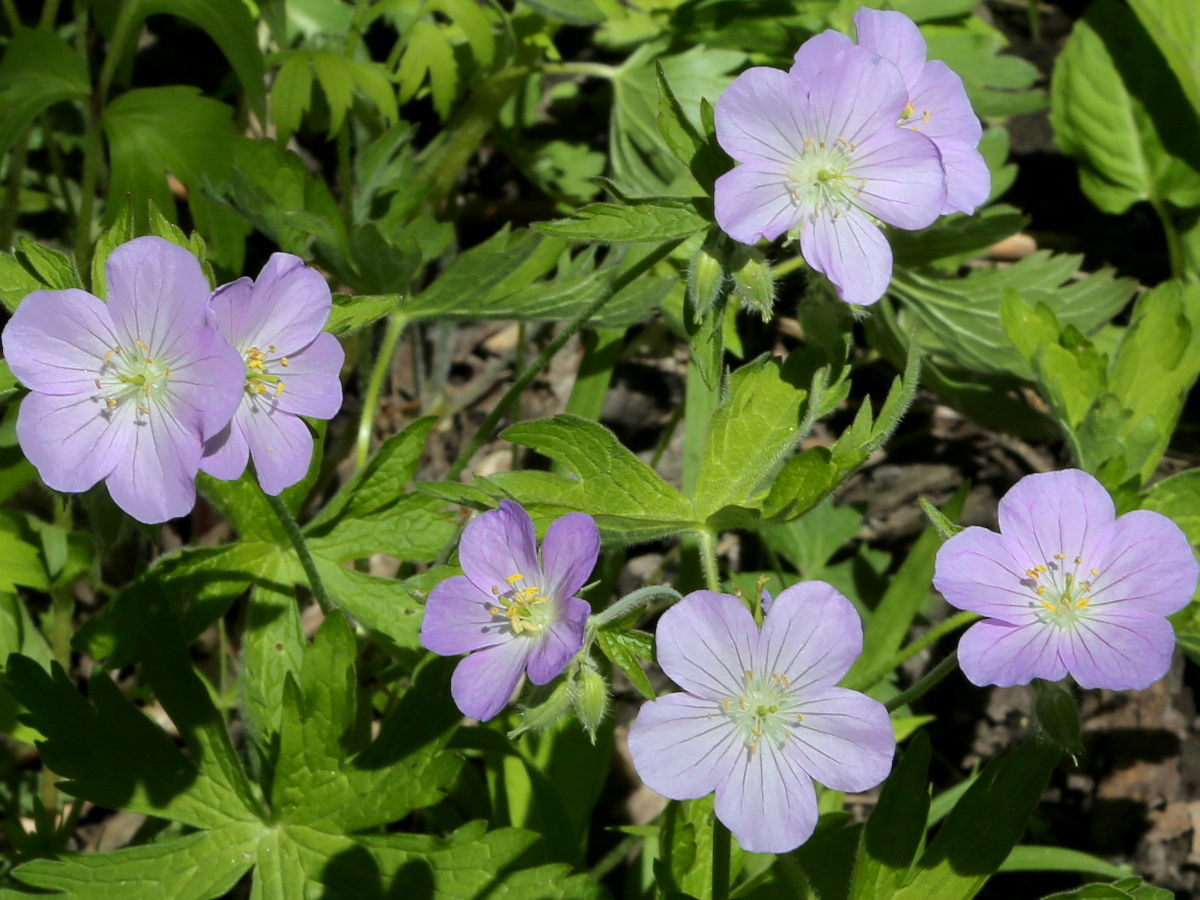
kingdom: Plantae
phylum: Tracheophyta
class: Magnoliopsida
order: Geraniales
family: Geraniaceae
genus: Geranium
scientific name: Geranium maculatum
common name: Spotted geranium
